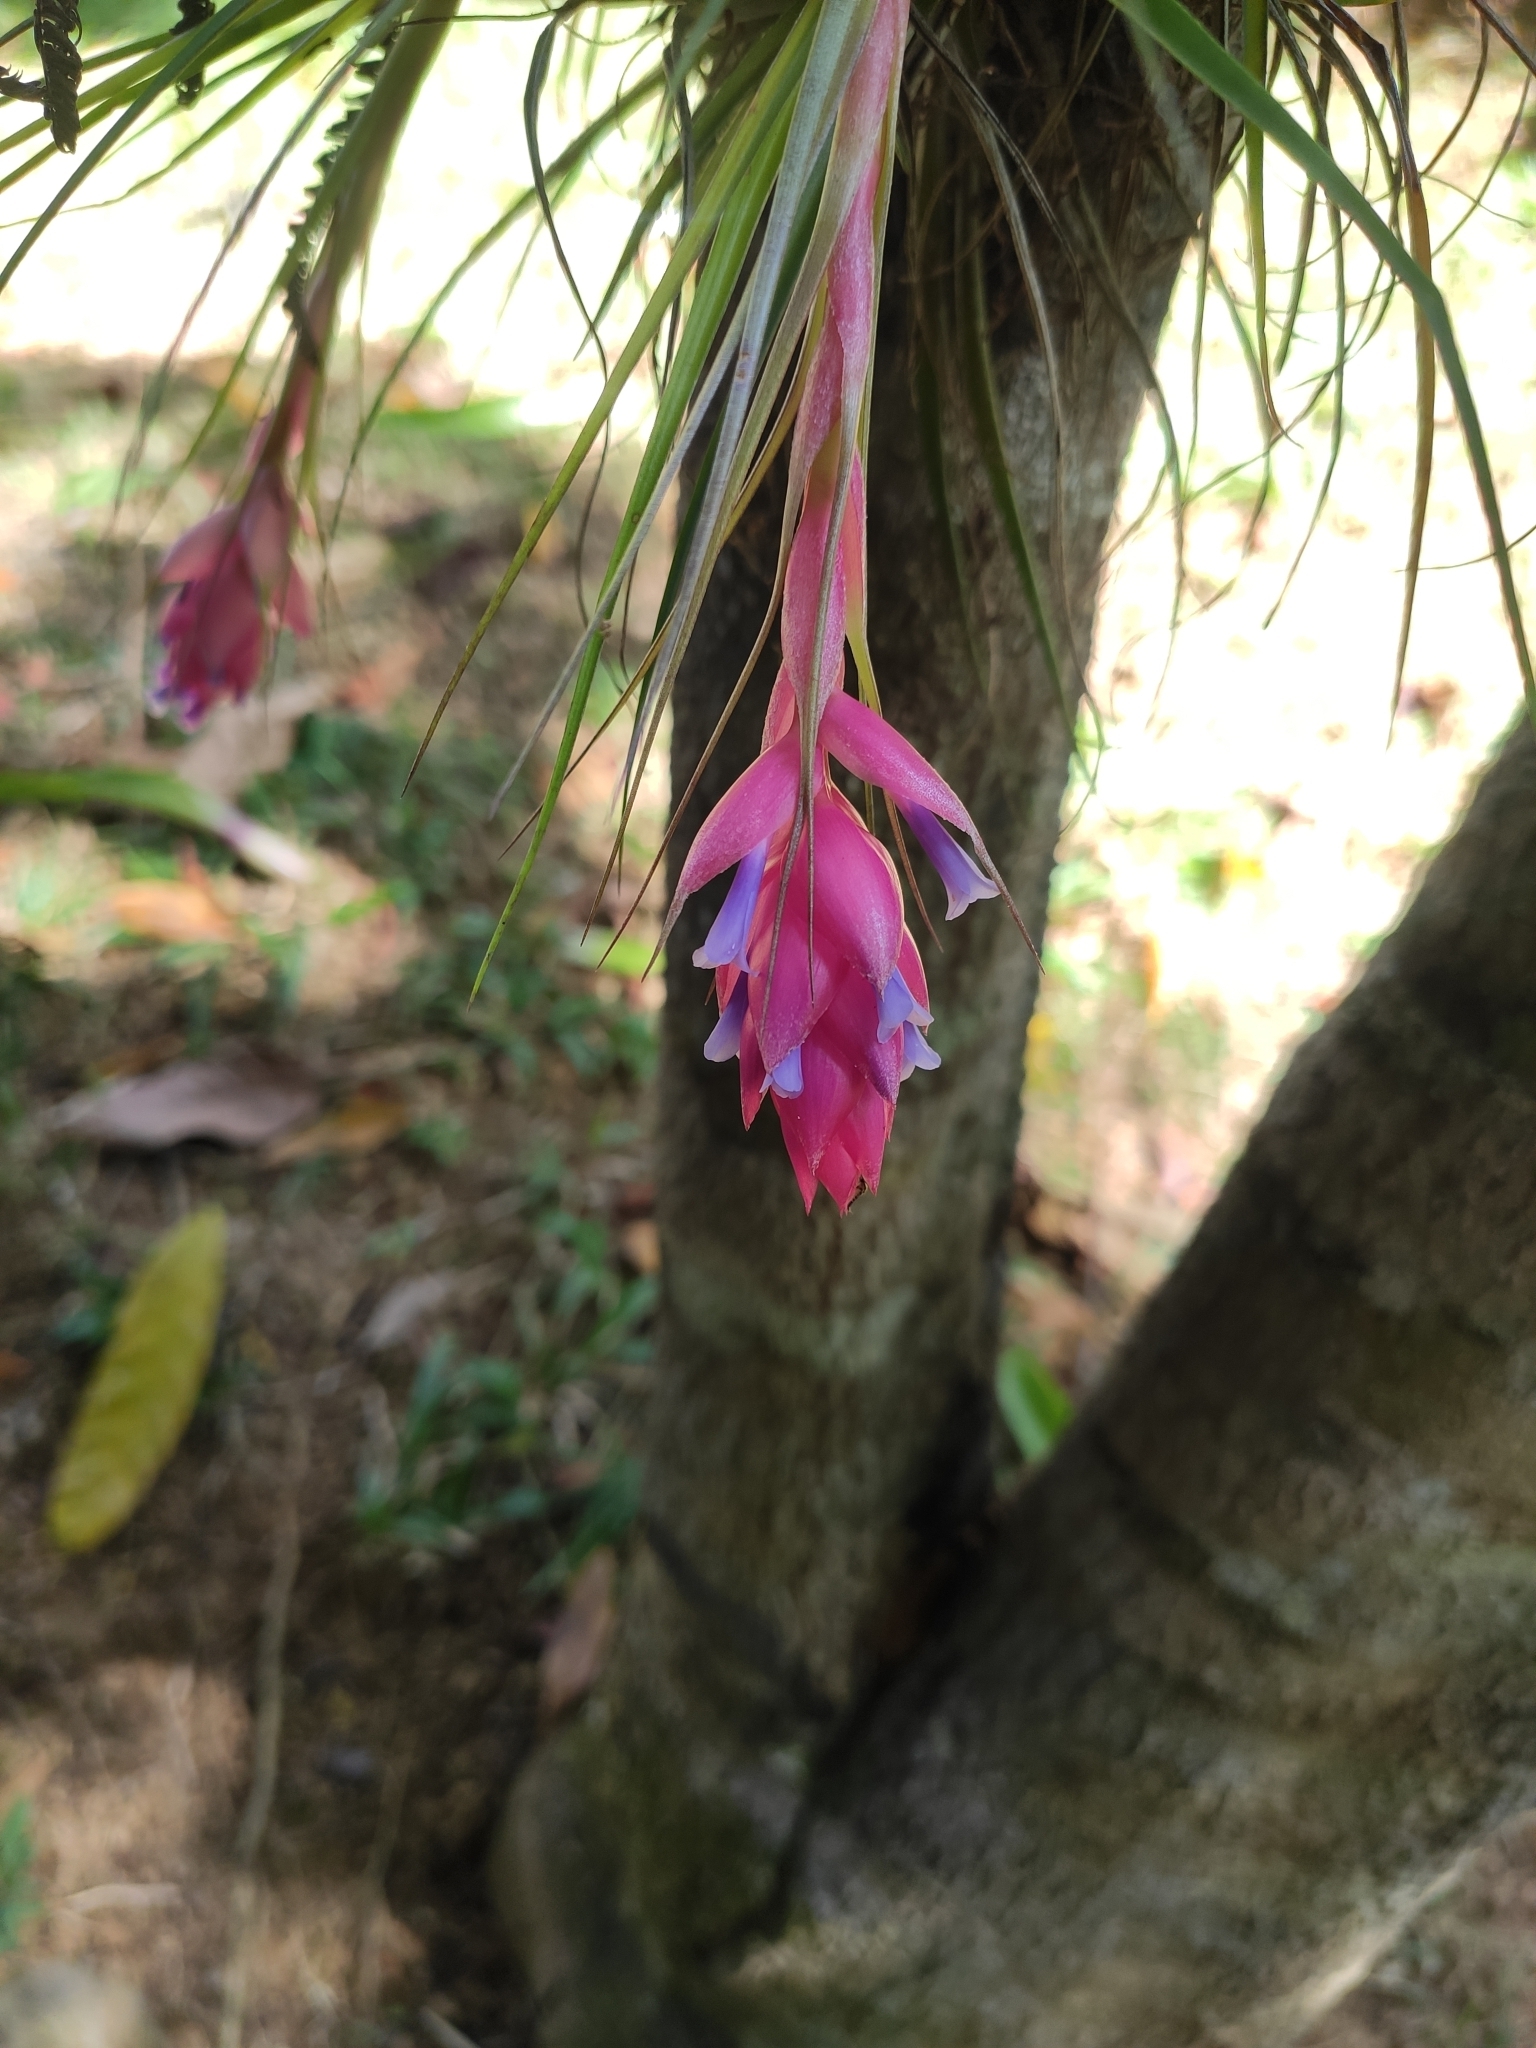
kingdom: Plantae
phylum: Tracheophyta
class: Liliopsida
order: Poales
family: Bromeliaceae
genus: Tillandsia
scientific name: Tillandsia stricta
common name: Airplant
